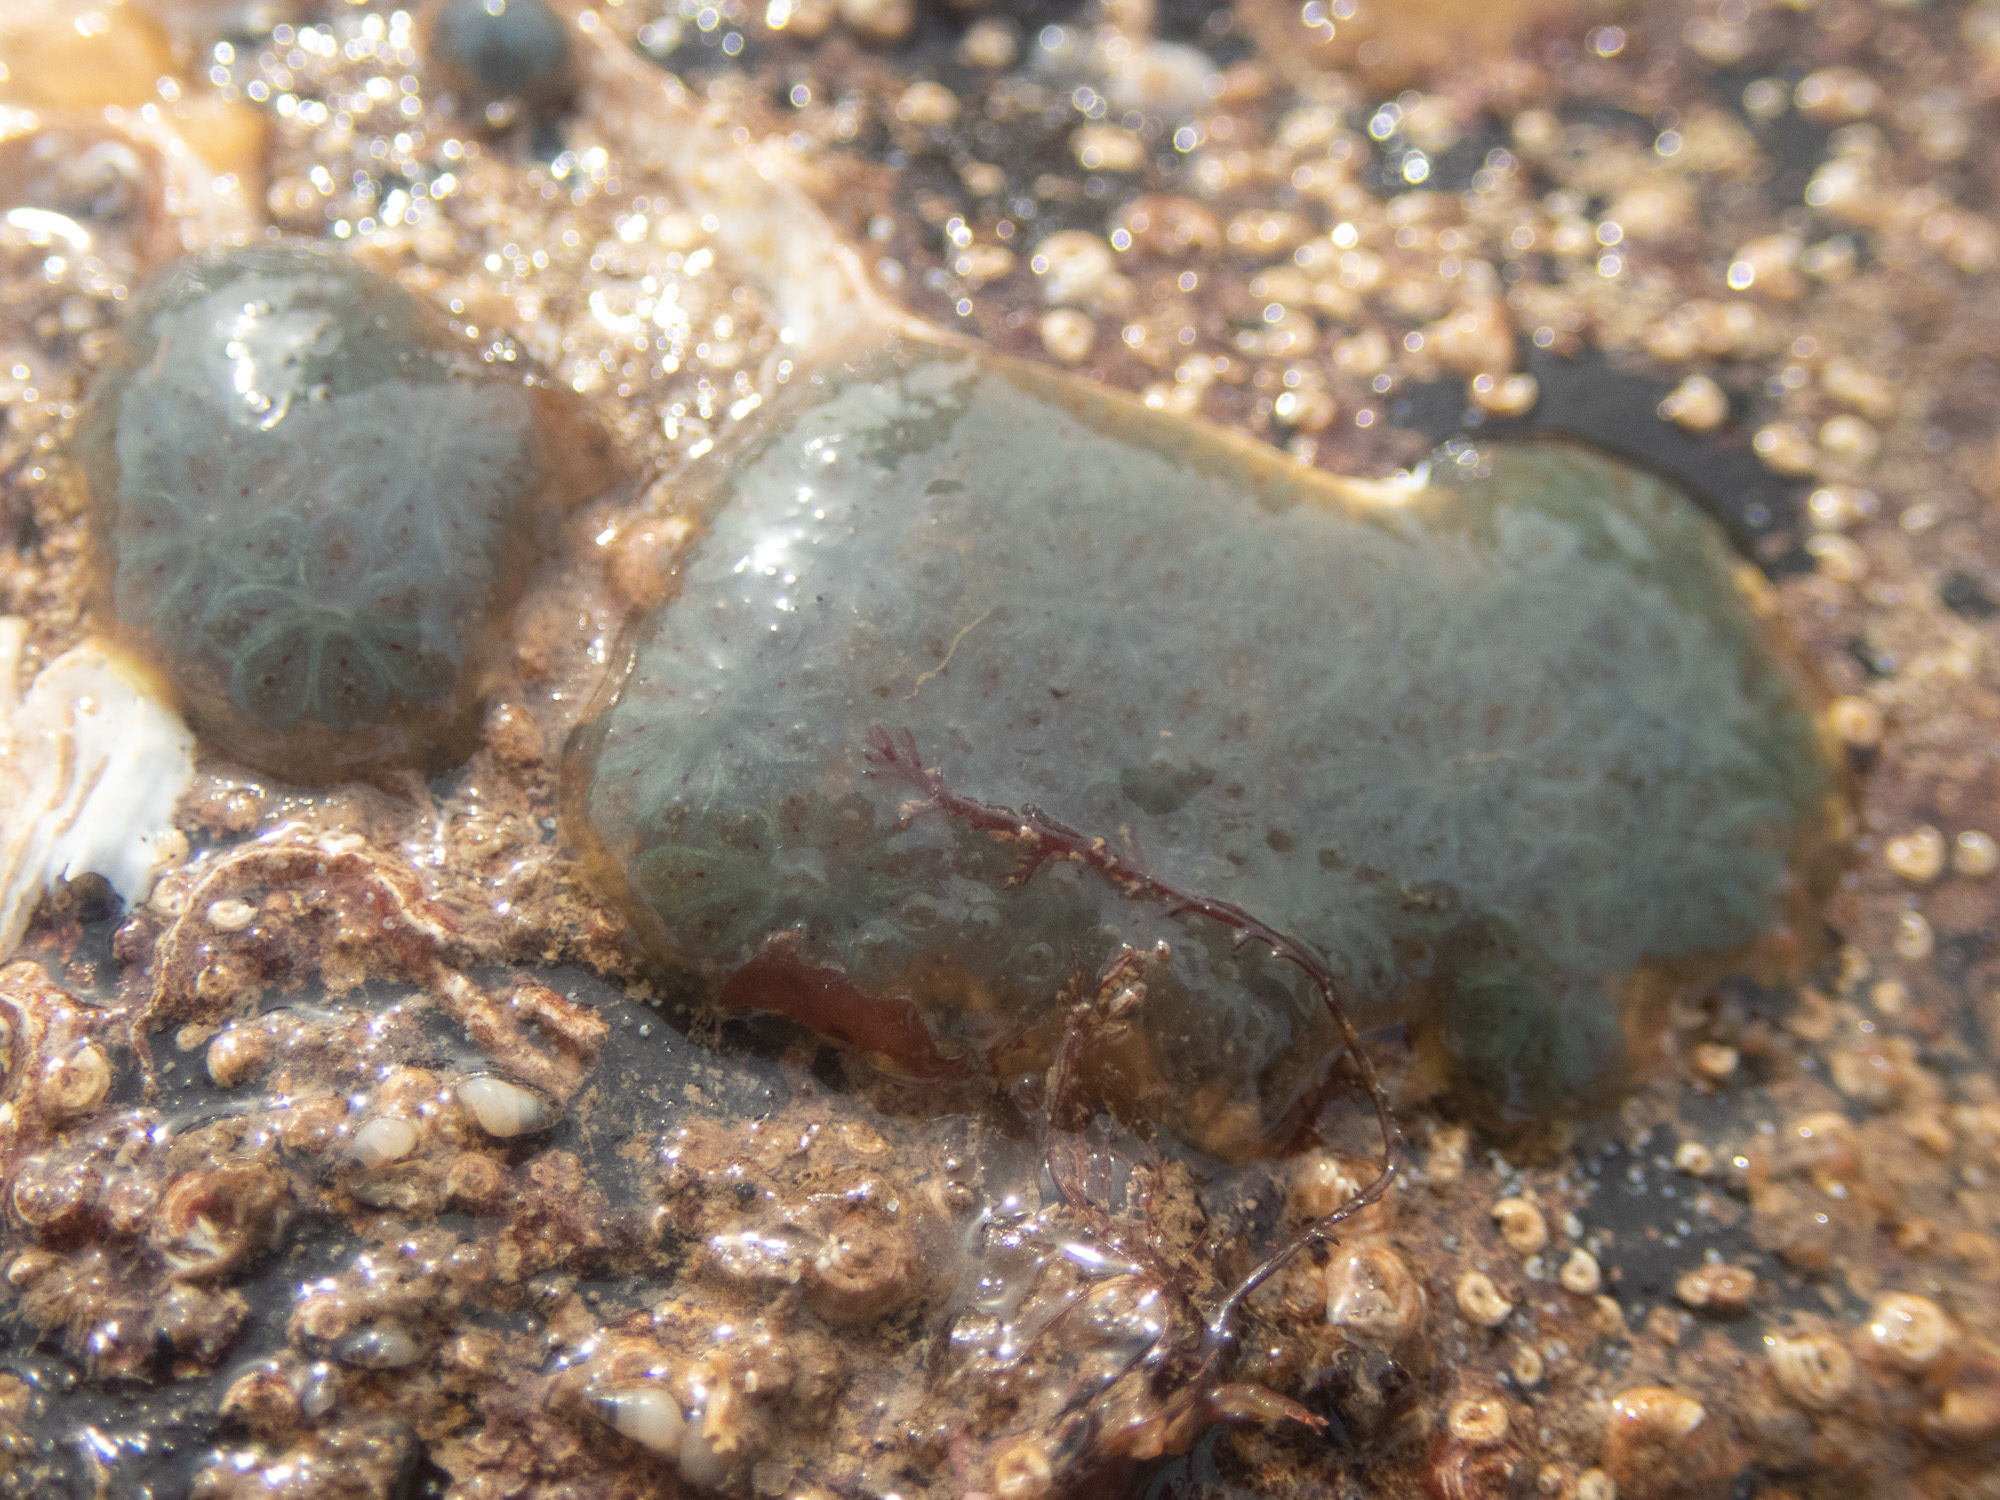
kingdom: Animalia
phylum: Chordata
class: Ascidiacea
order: Stolidobranchia
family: Styelidae
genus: Botryllus
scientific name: Botryllus schlosseri
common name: Golden star tunicate
